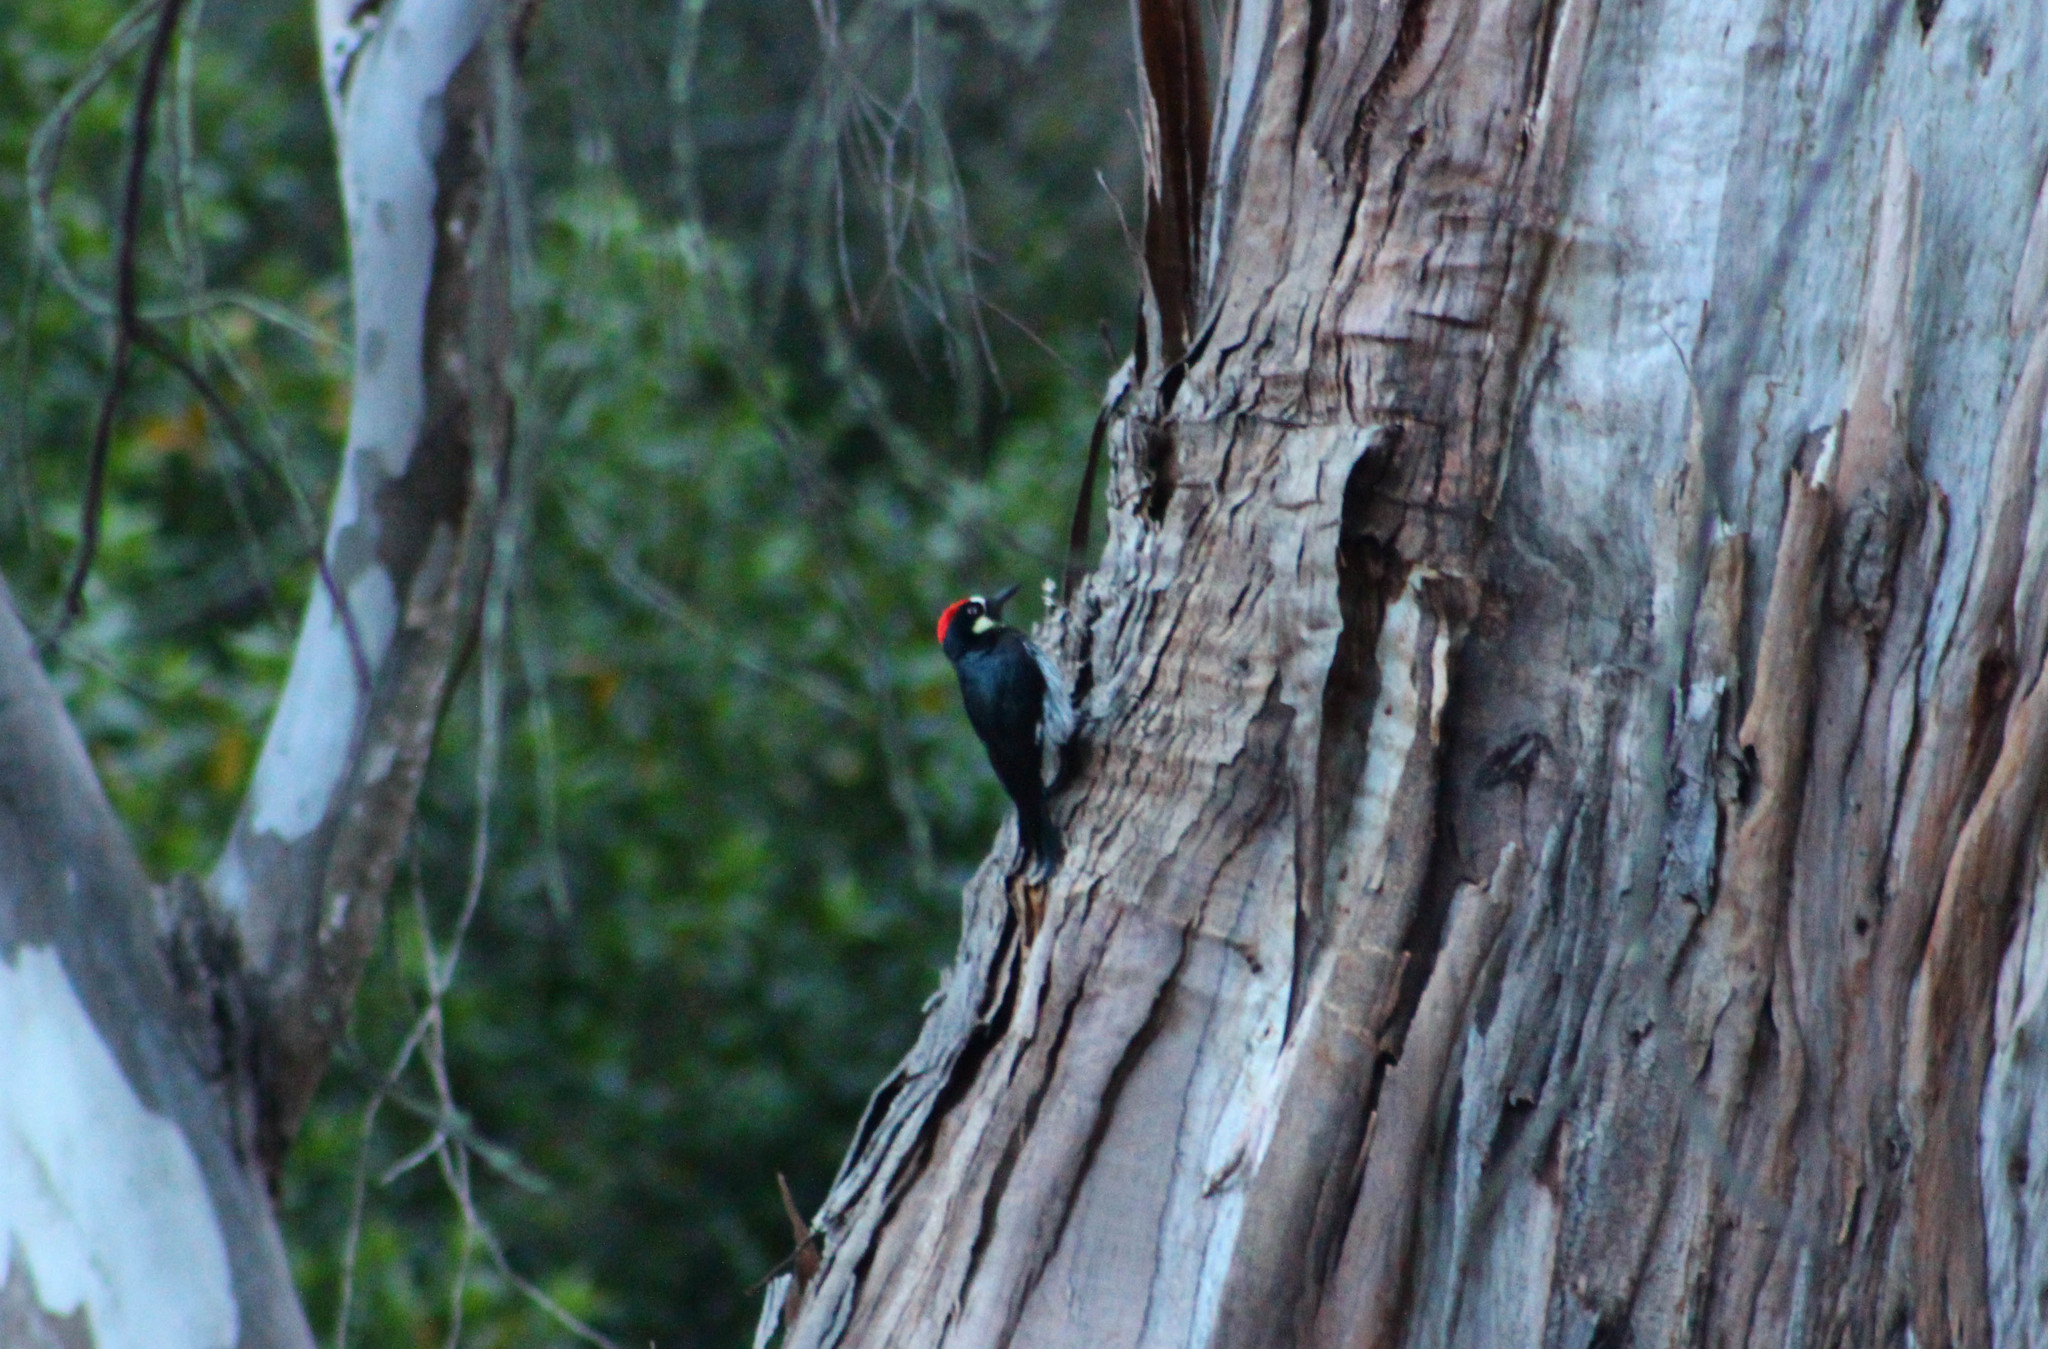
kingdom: Animalia
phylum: Chordata
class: Aves
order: Piciformes
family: Picidae
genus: Melanerpes
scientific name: Melanerpes formicivorus
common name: Acorn woodpecker
